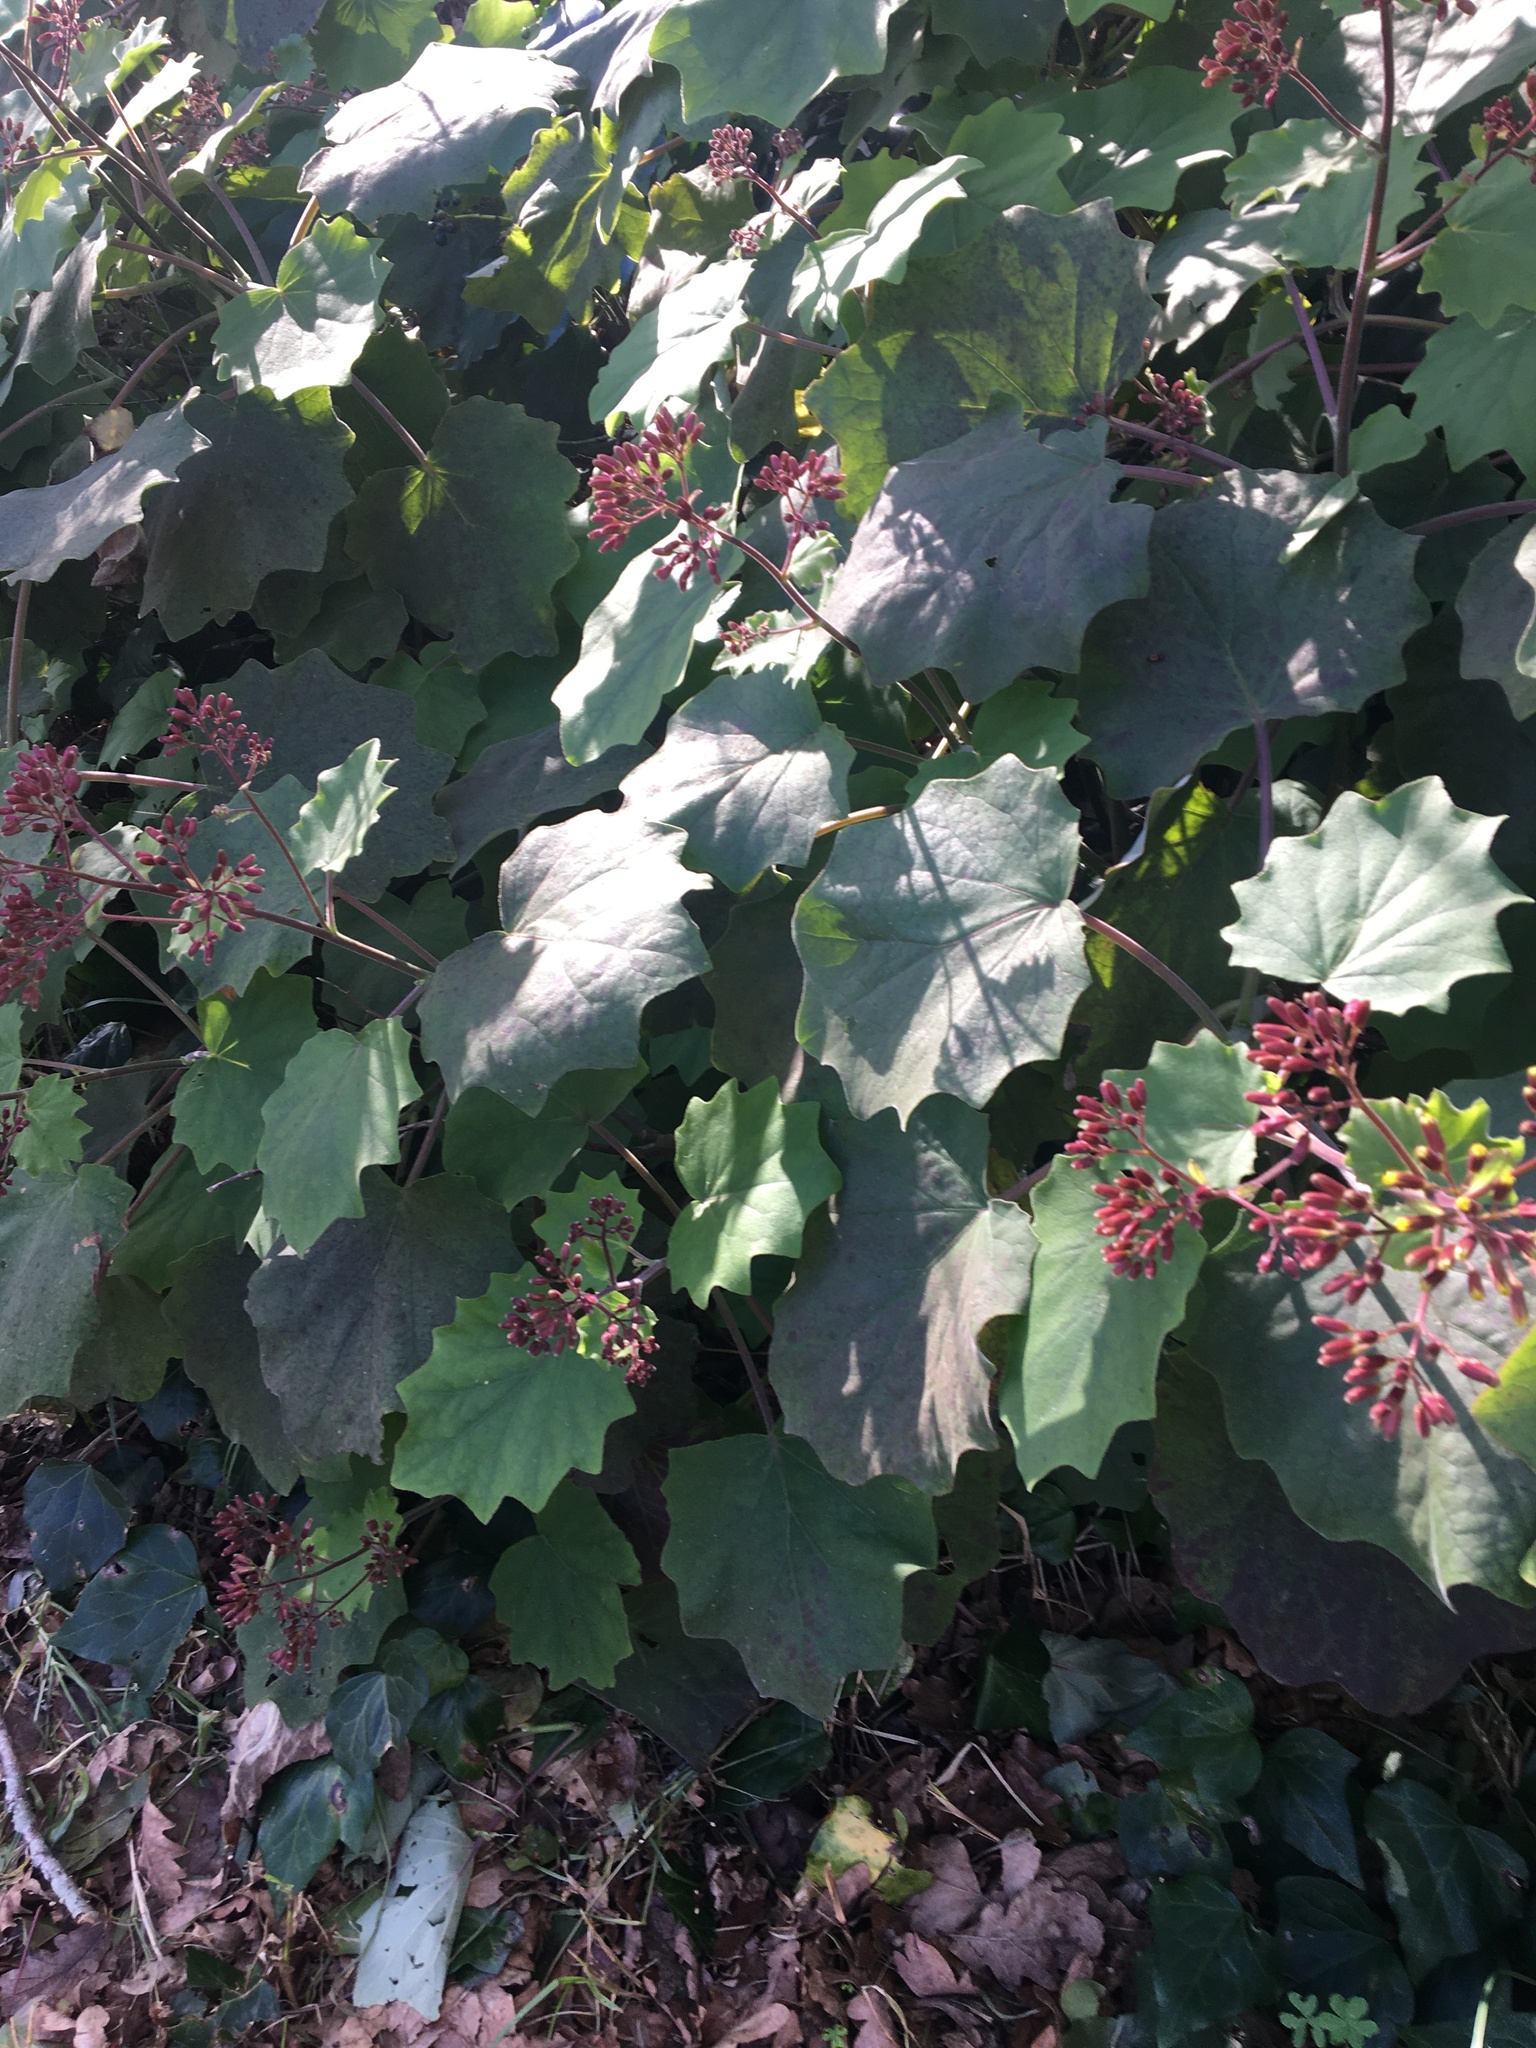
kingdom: Plantae
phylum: Tracheophyta
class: Magnoliopsida
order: Asterales
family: Asteraceae
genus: Roldana
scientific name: Roldana petasitis
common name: California-geranium
